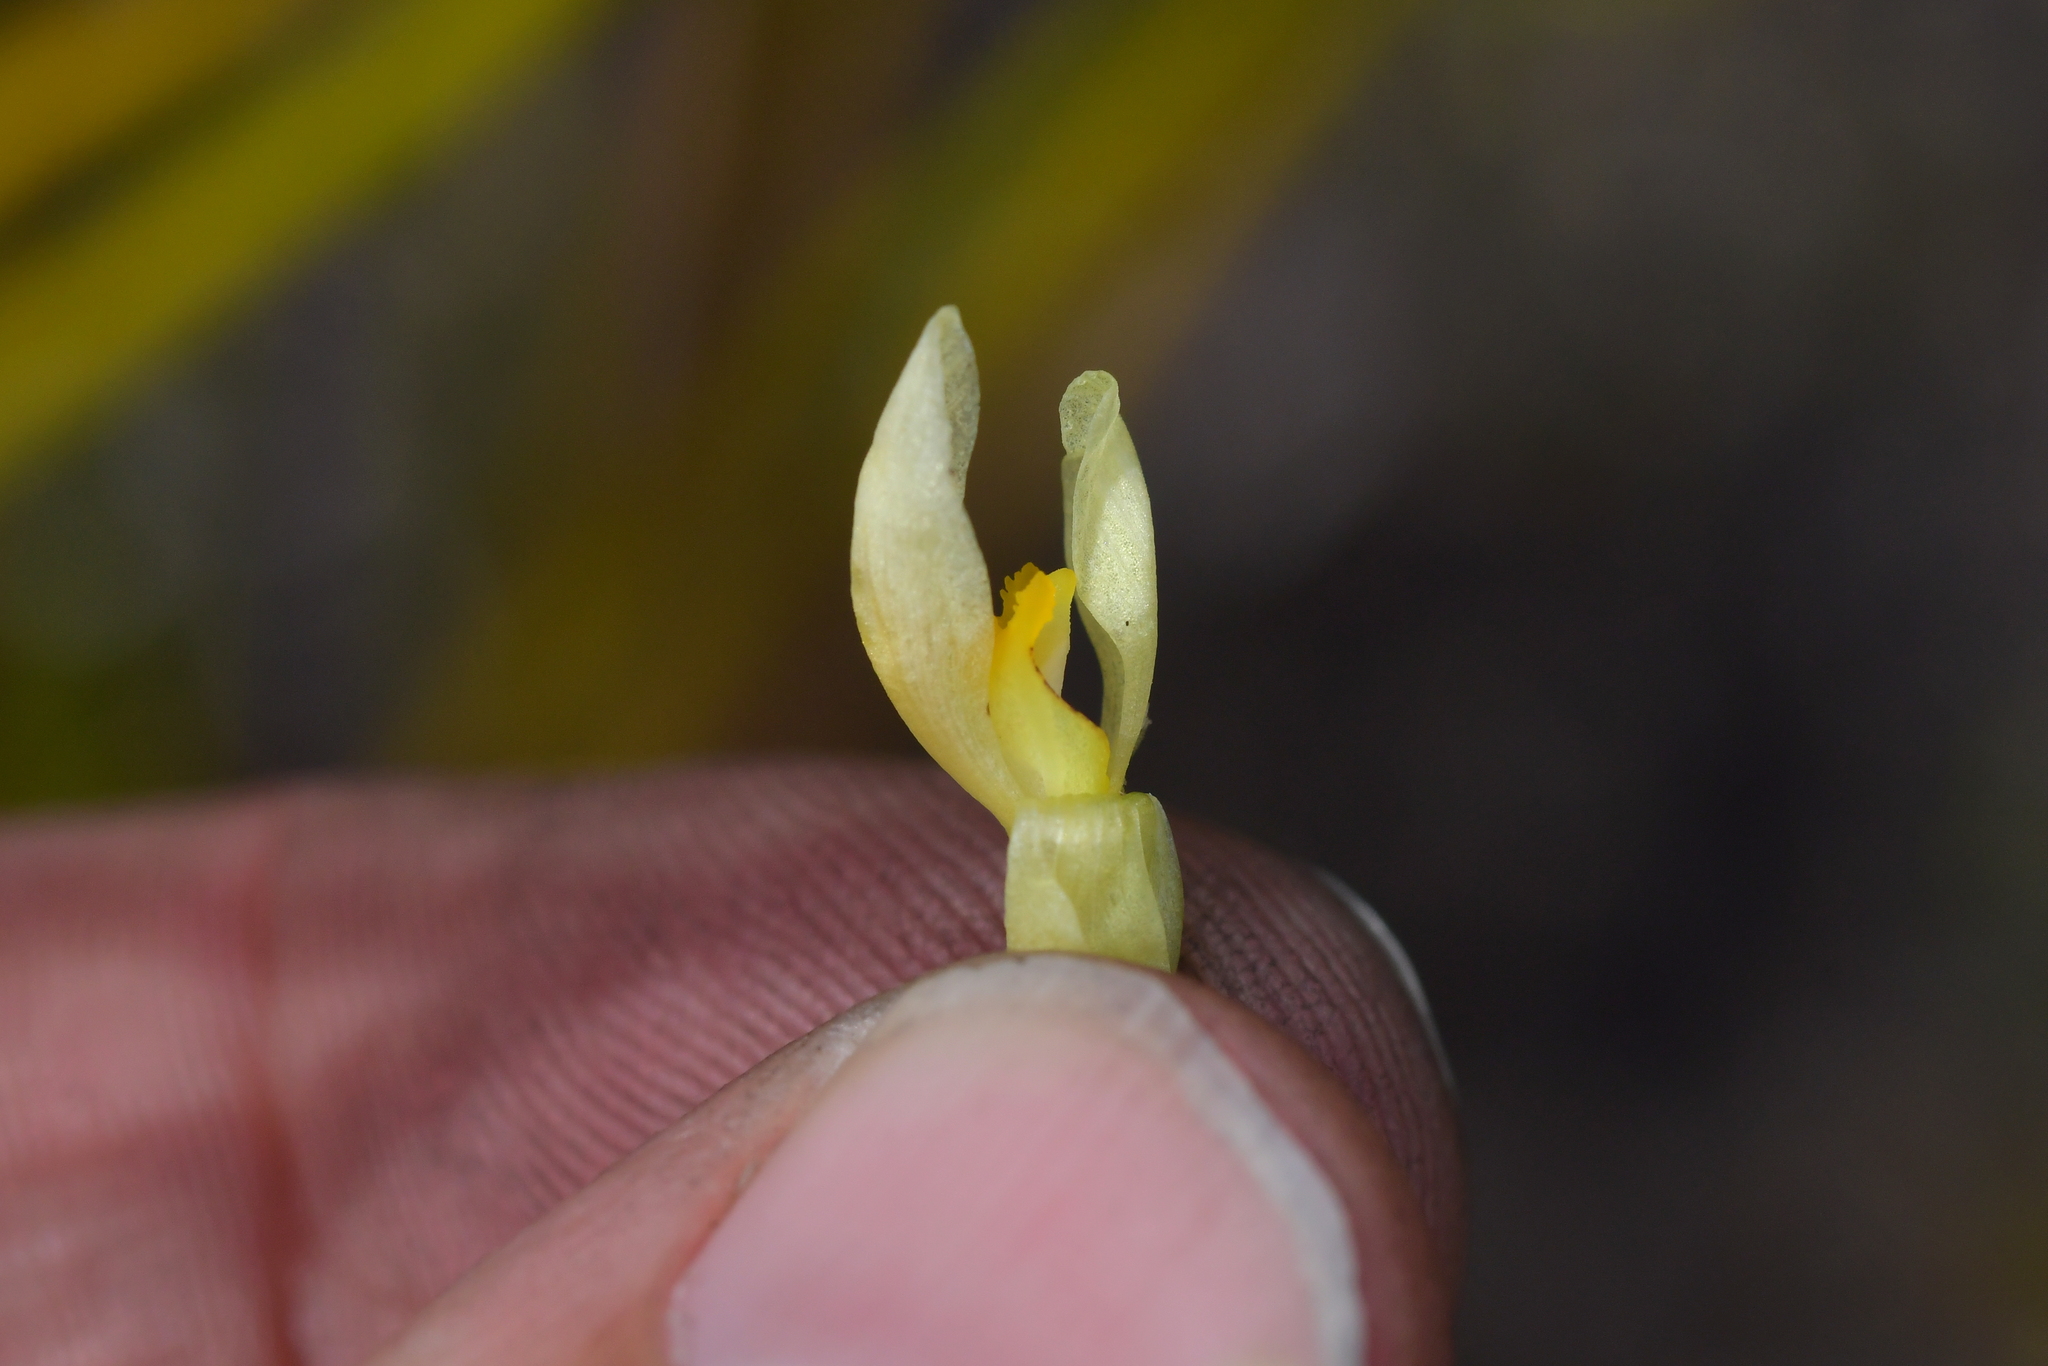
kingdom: Plantae
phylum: Tracheophyta
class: Liliopsida
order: Asparagales
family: Orchidaceae
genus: Thelymitra
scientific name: Thelymitra carnea
